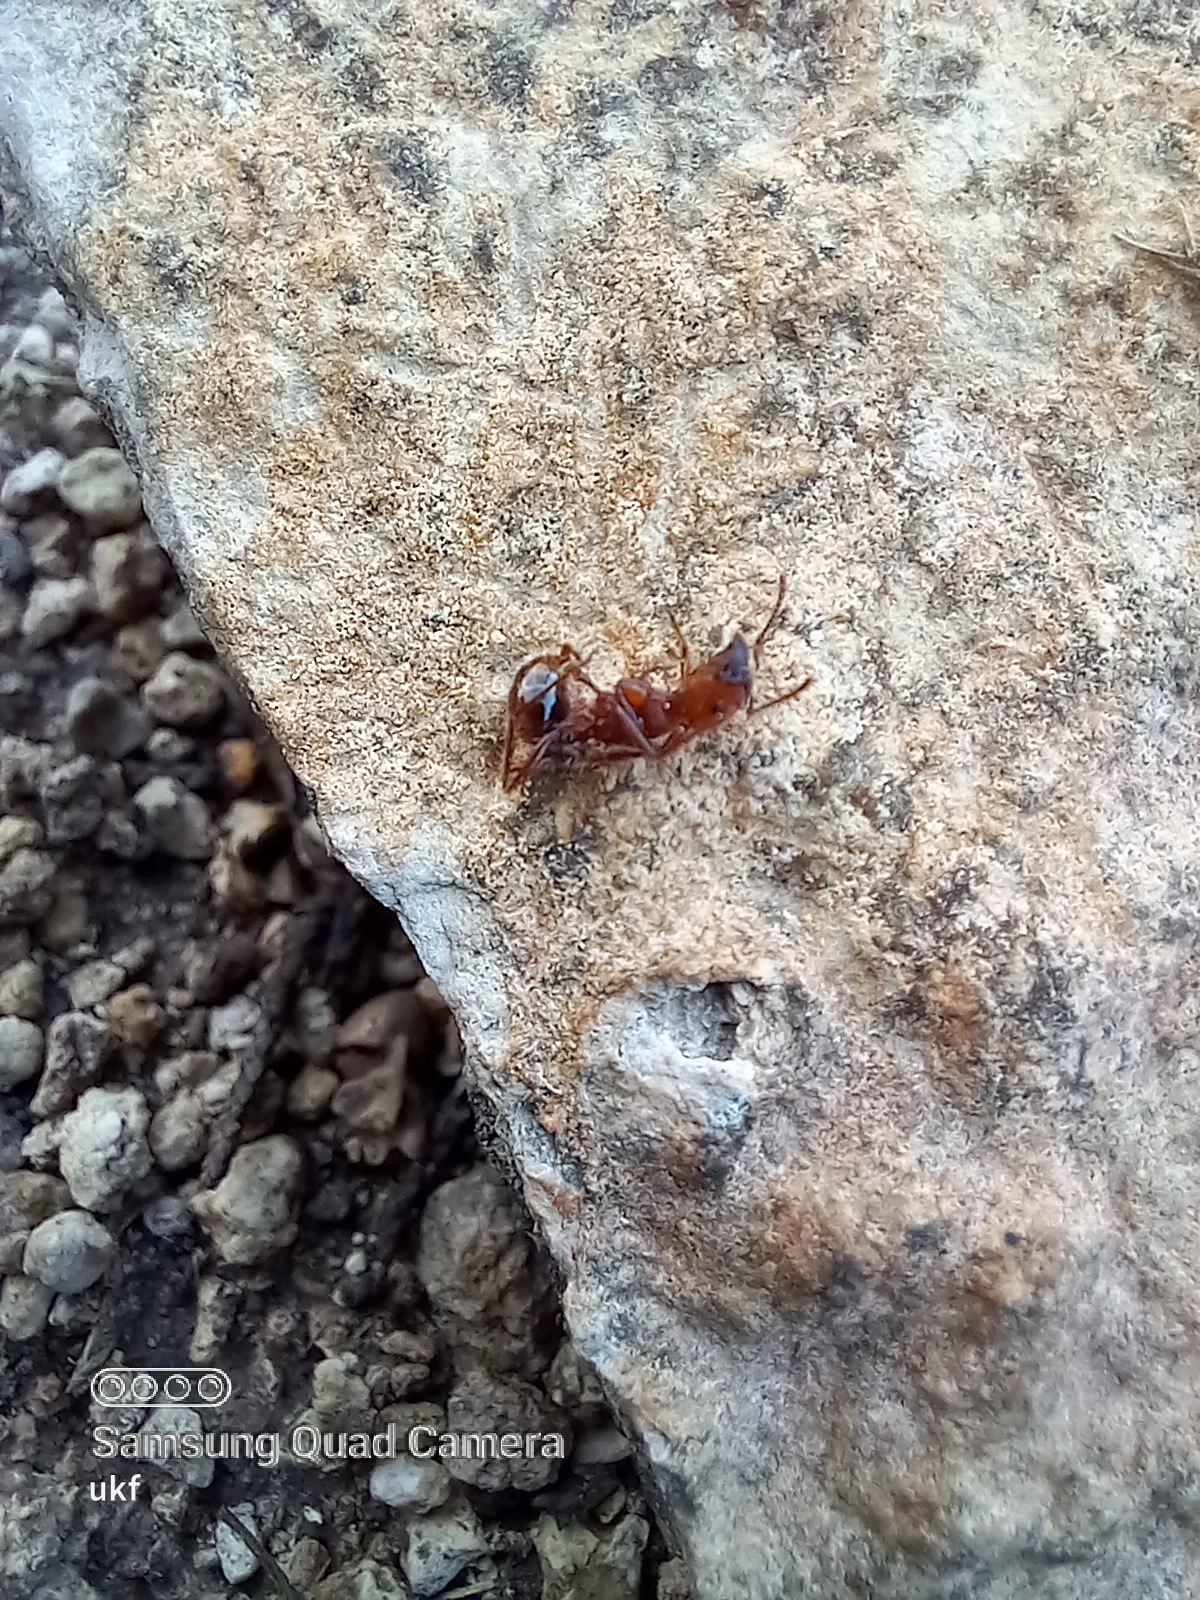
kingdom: Animalia
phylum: Arthropoda
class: Insecta
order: Hymenoptera
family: Formicidae
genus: Pogonomyrmex
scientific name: Pogonomyrmex barbatus
